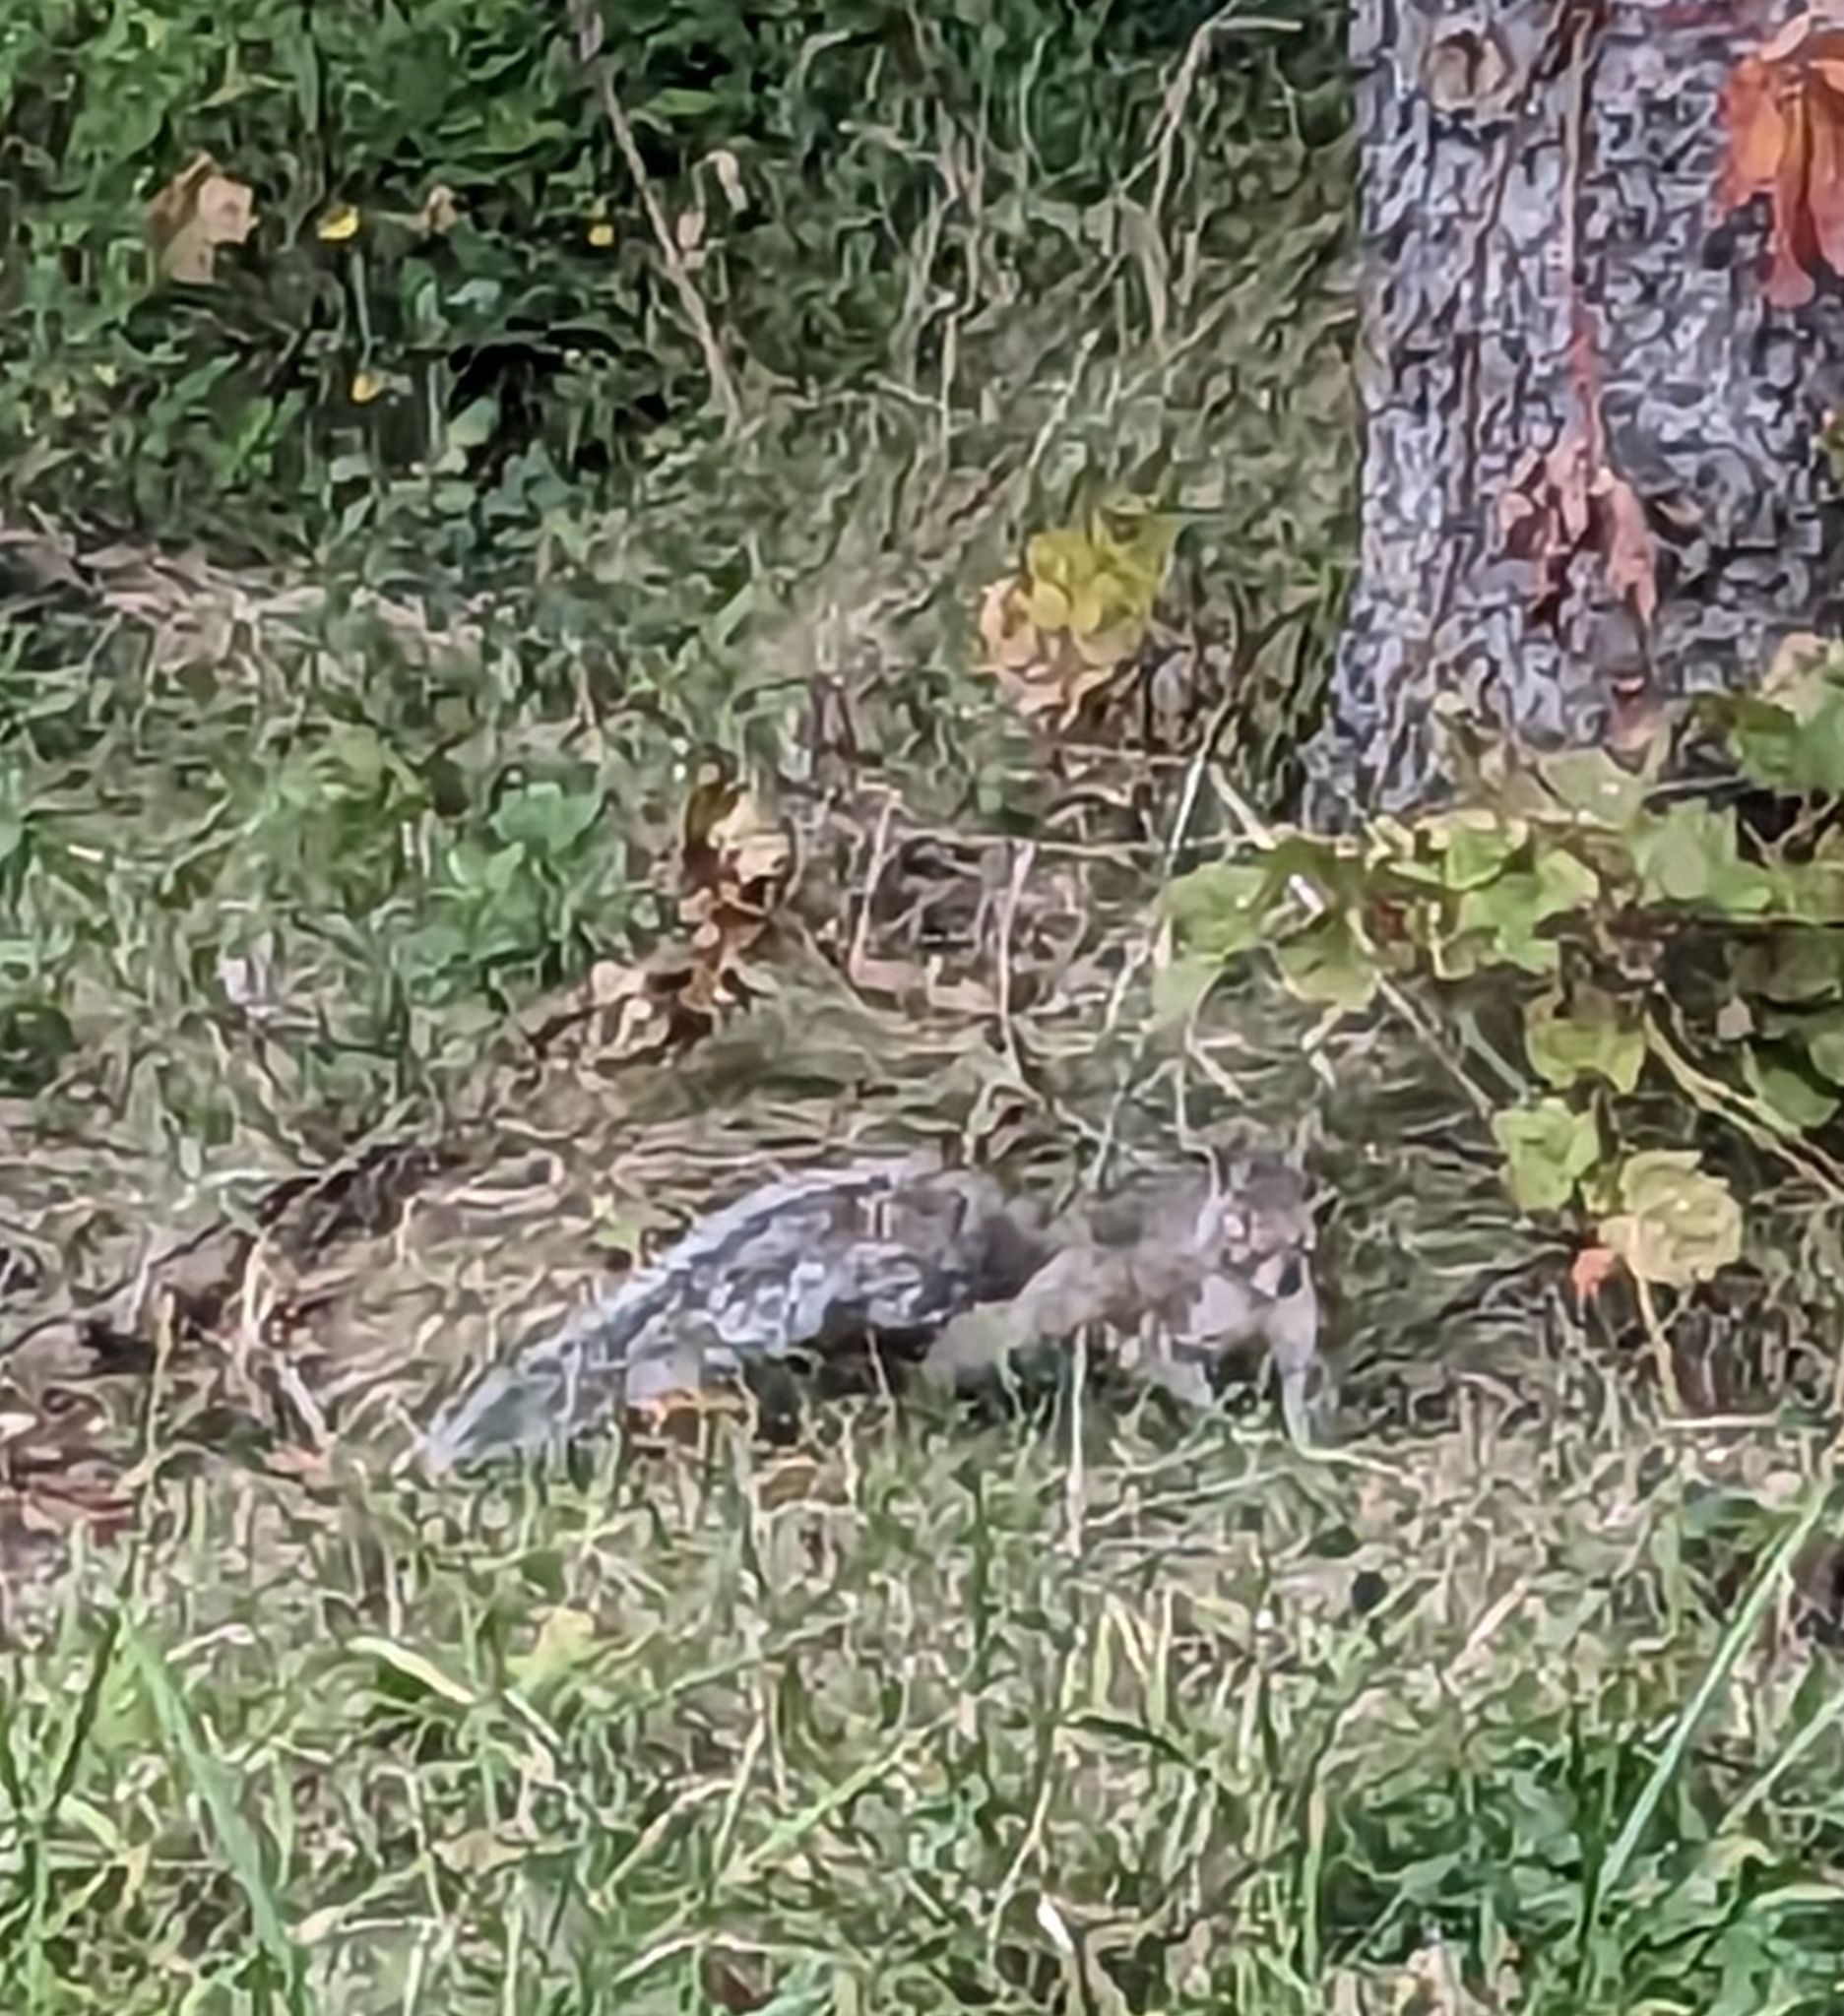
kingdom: Animalia
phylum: Chordata
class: Mammalia
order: Rodentia
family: Sciuridae
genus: Sciurus
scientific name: Sciurus carolinensis
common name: Eastern gray squirrel
